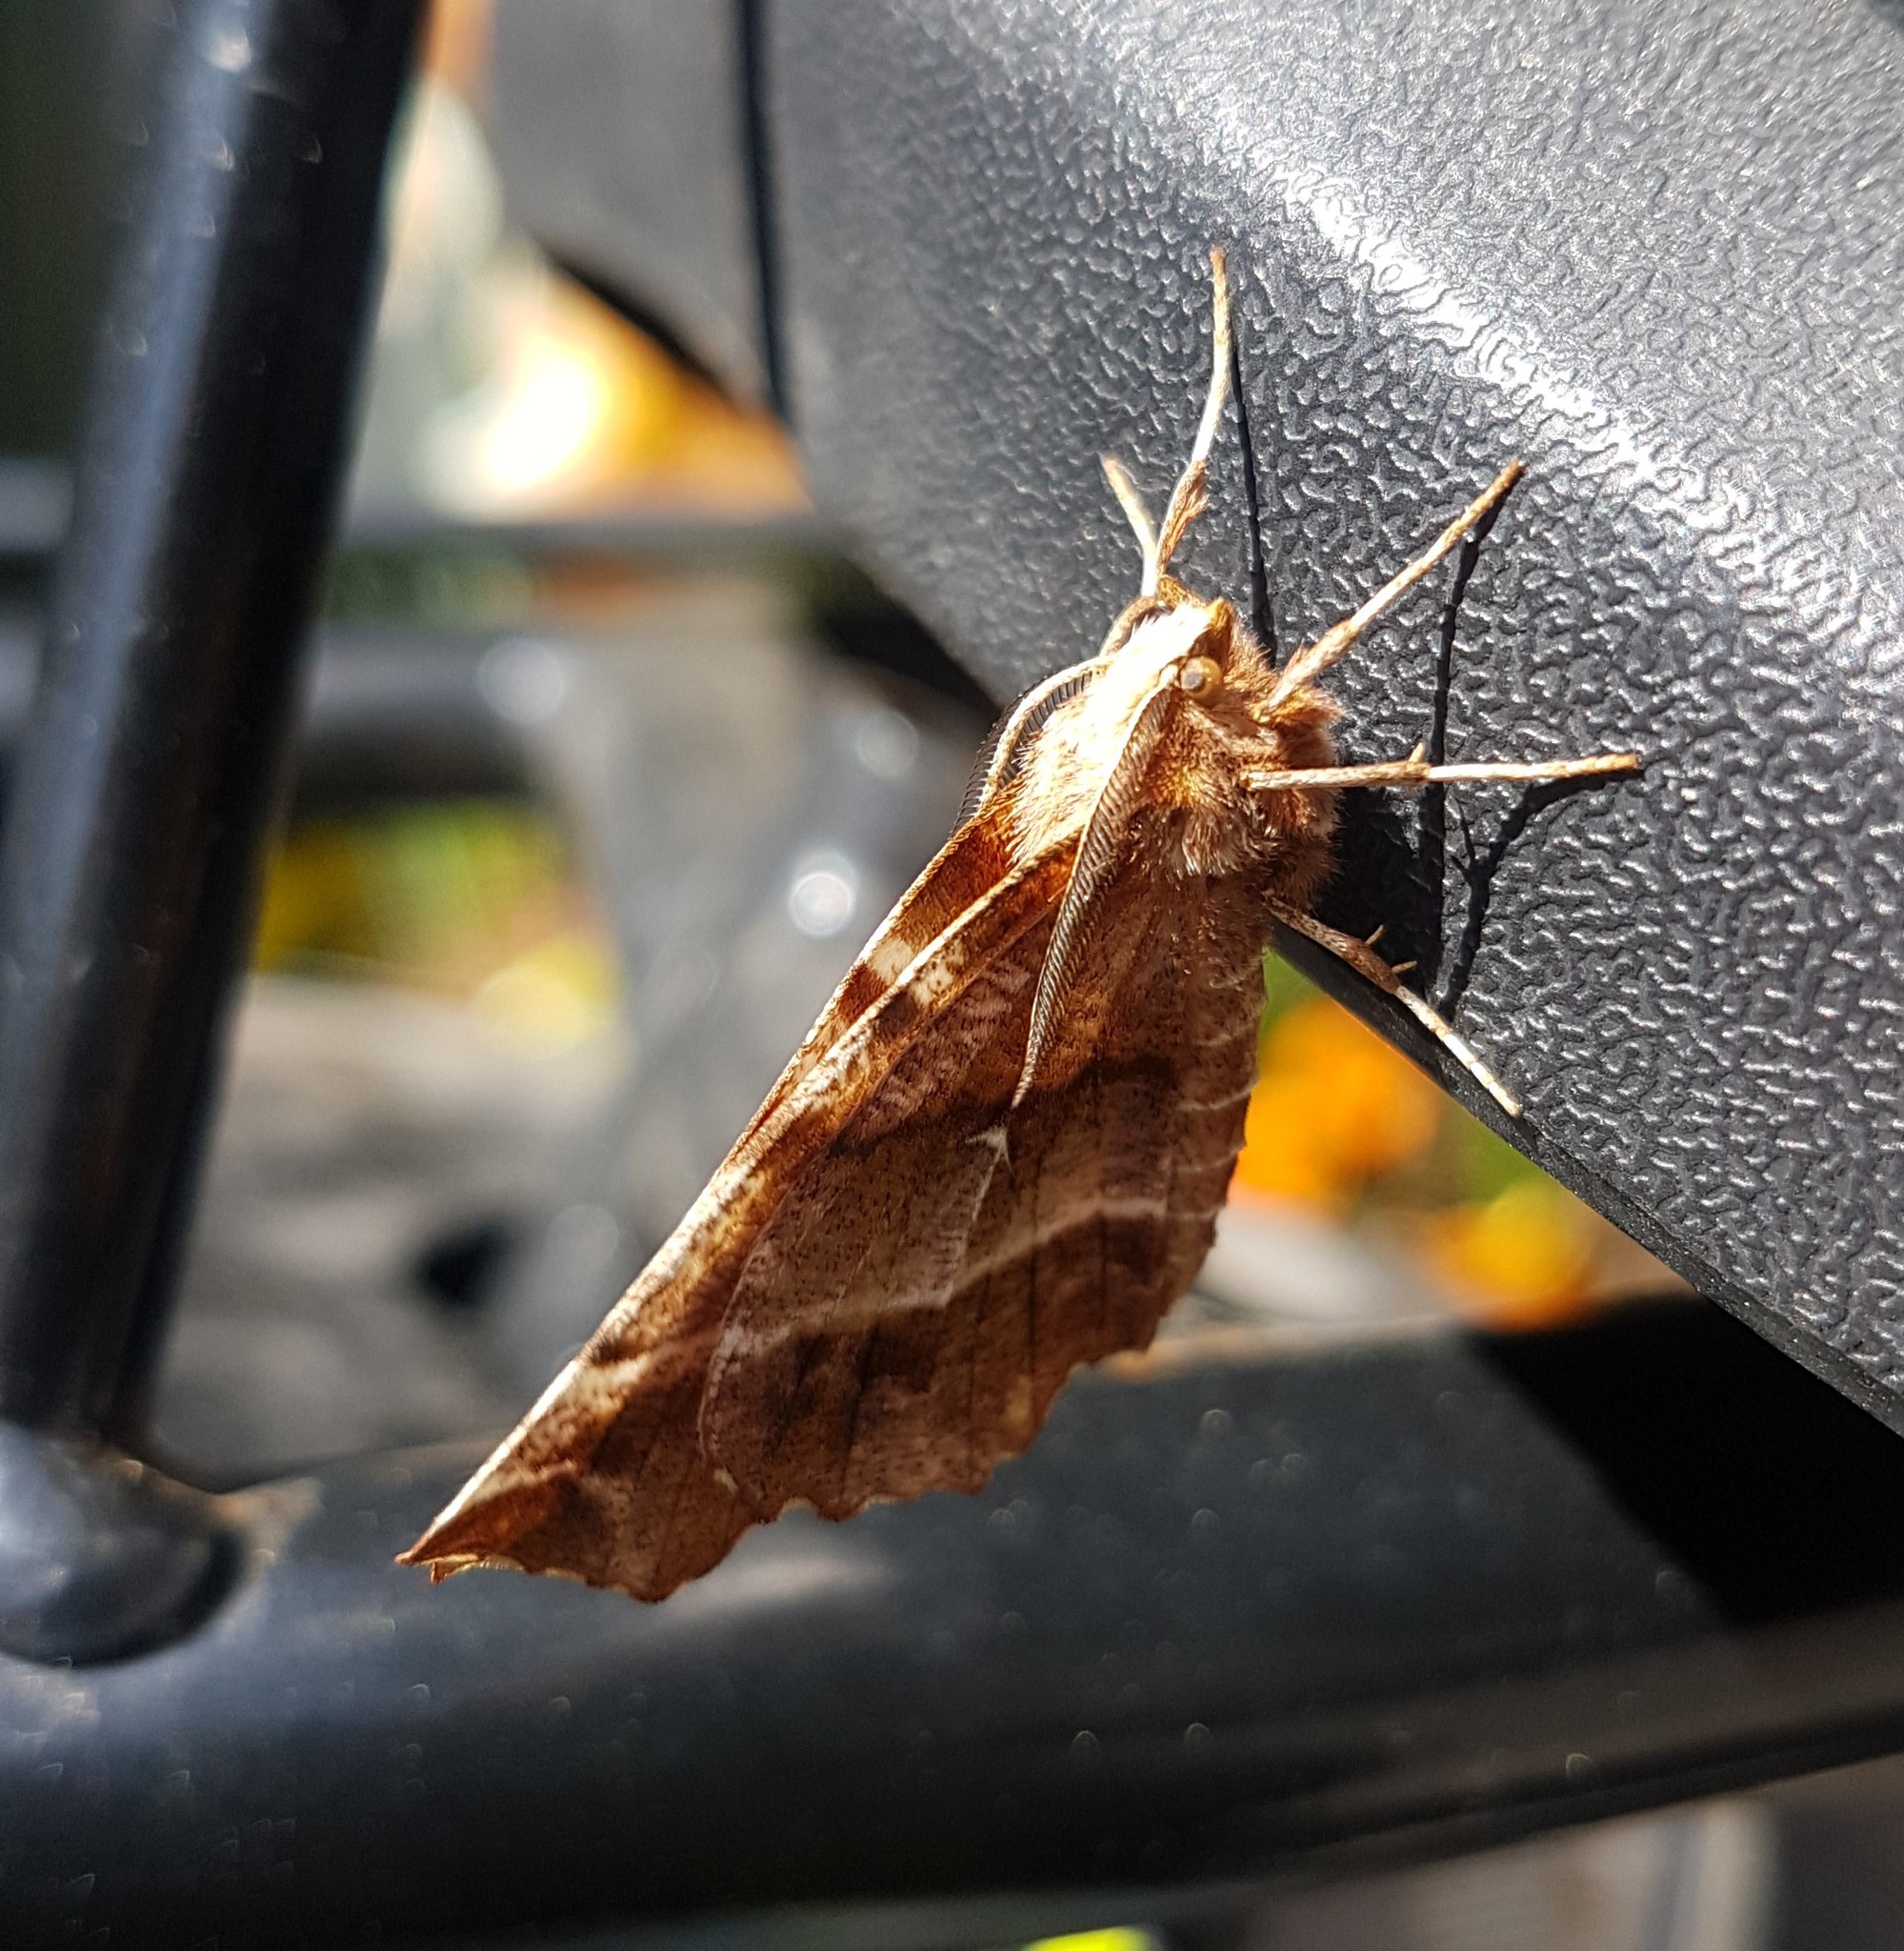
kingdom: Animalia
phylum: Arthropoda
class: Insecta
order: Lepidoptera
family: Geometridae
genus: Selenia
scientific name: Selenia dentaria
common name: Early thorn
